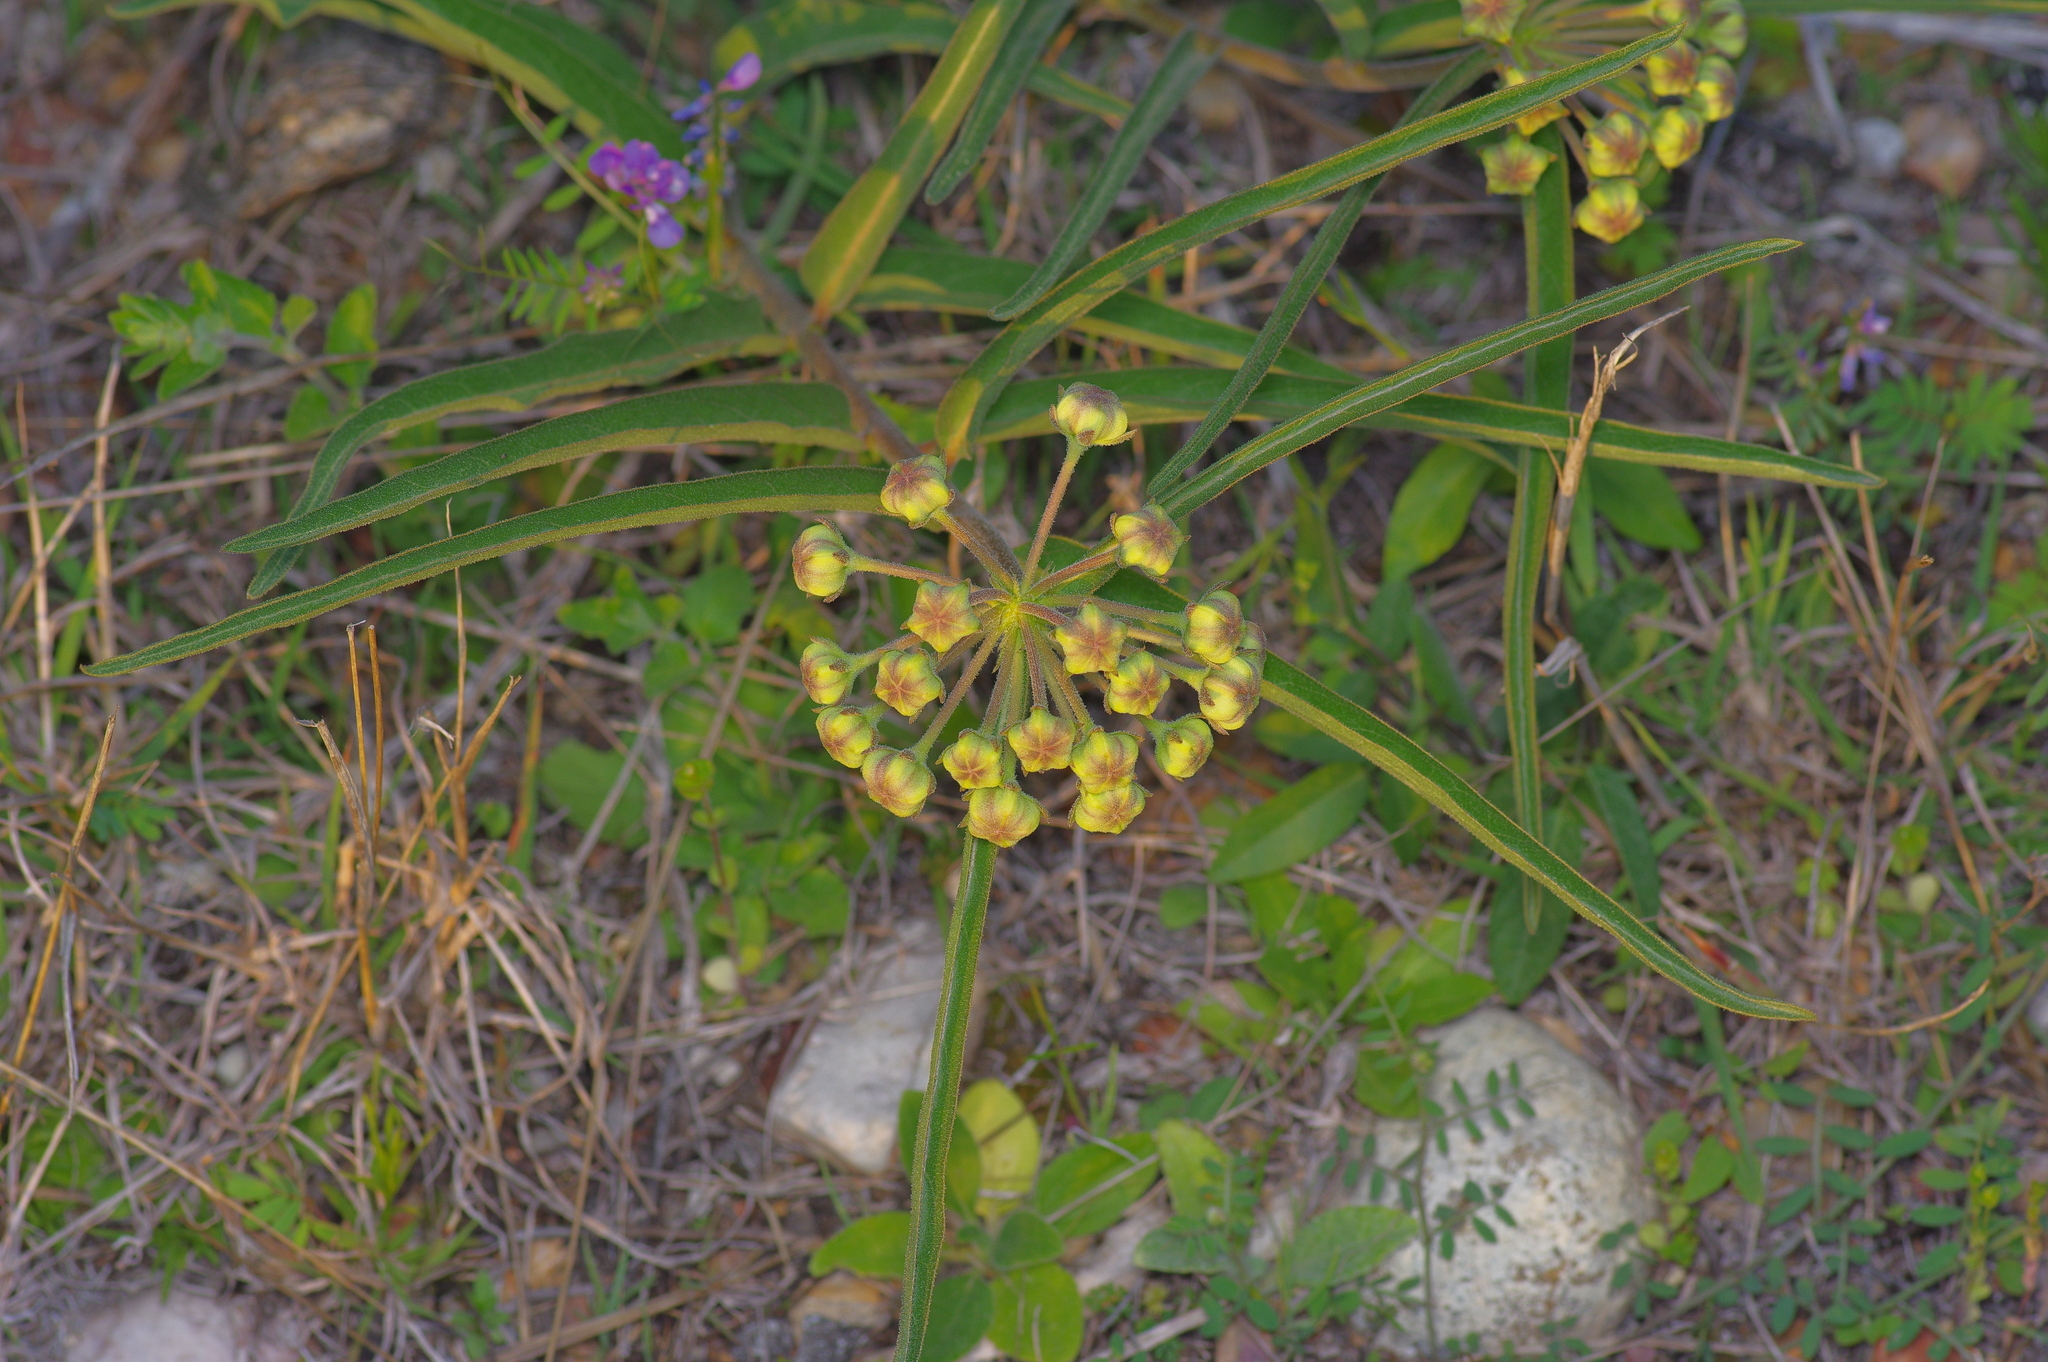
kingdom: Plantae
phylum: Tracheophyta
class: Magnoliopsida
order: Gentianales
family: Apocynaceae
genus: Asclepias
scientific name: Asclepias asperula
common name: Antelope horns
